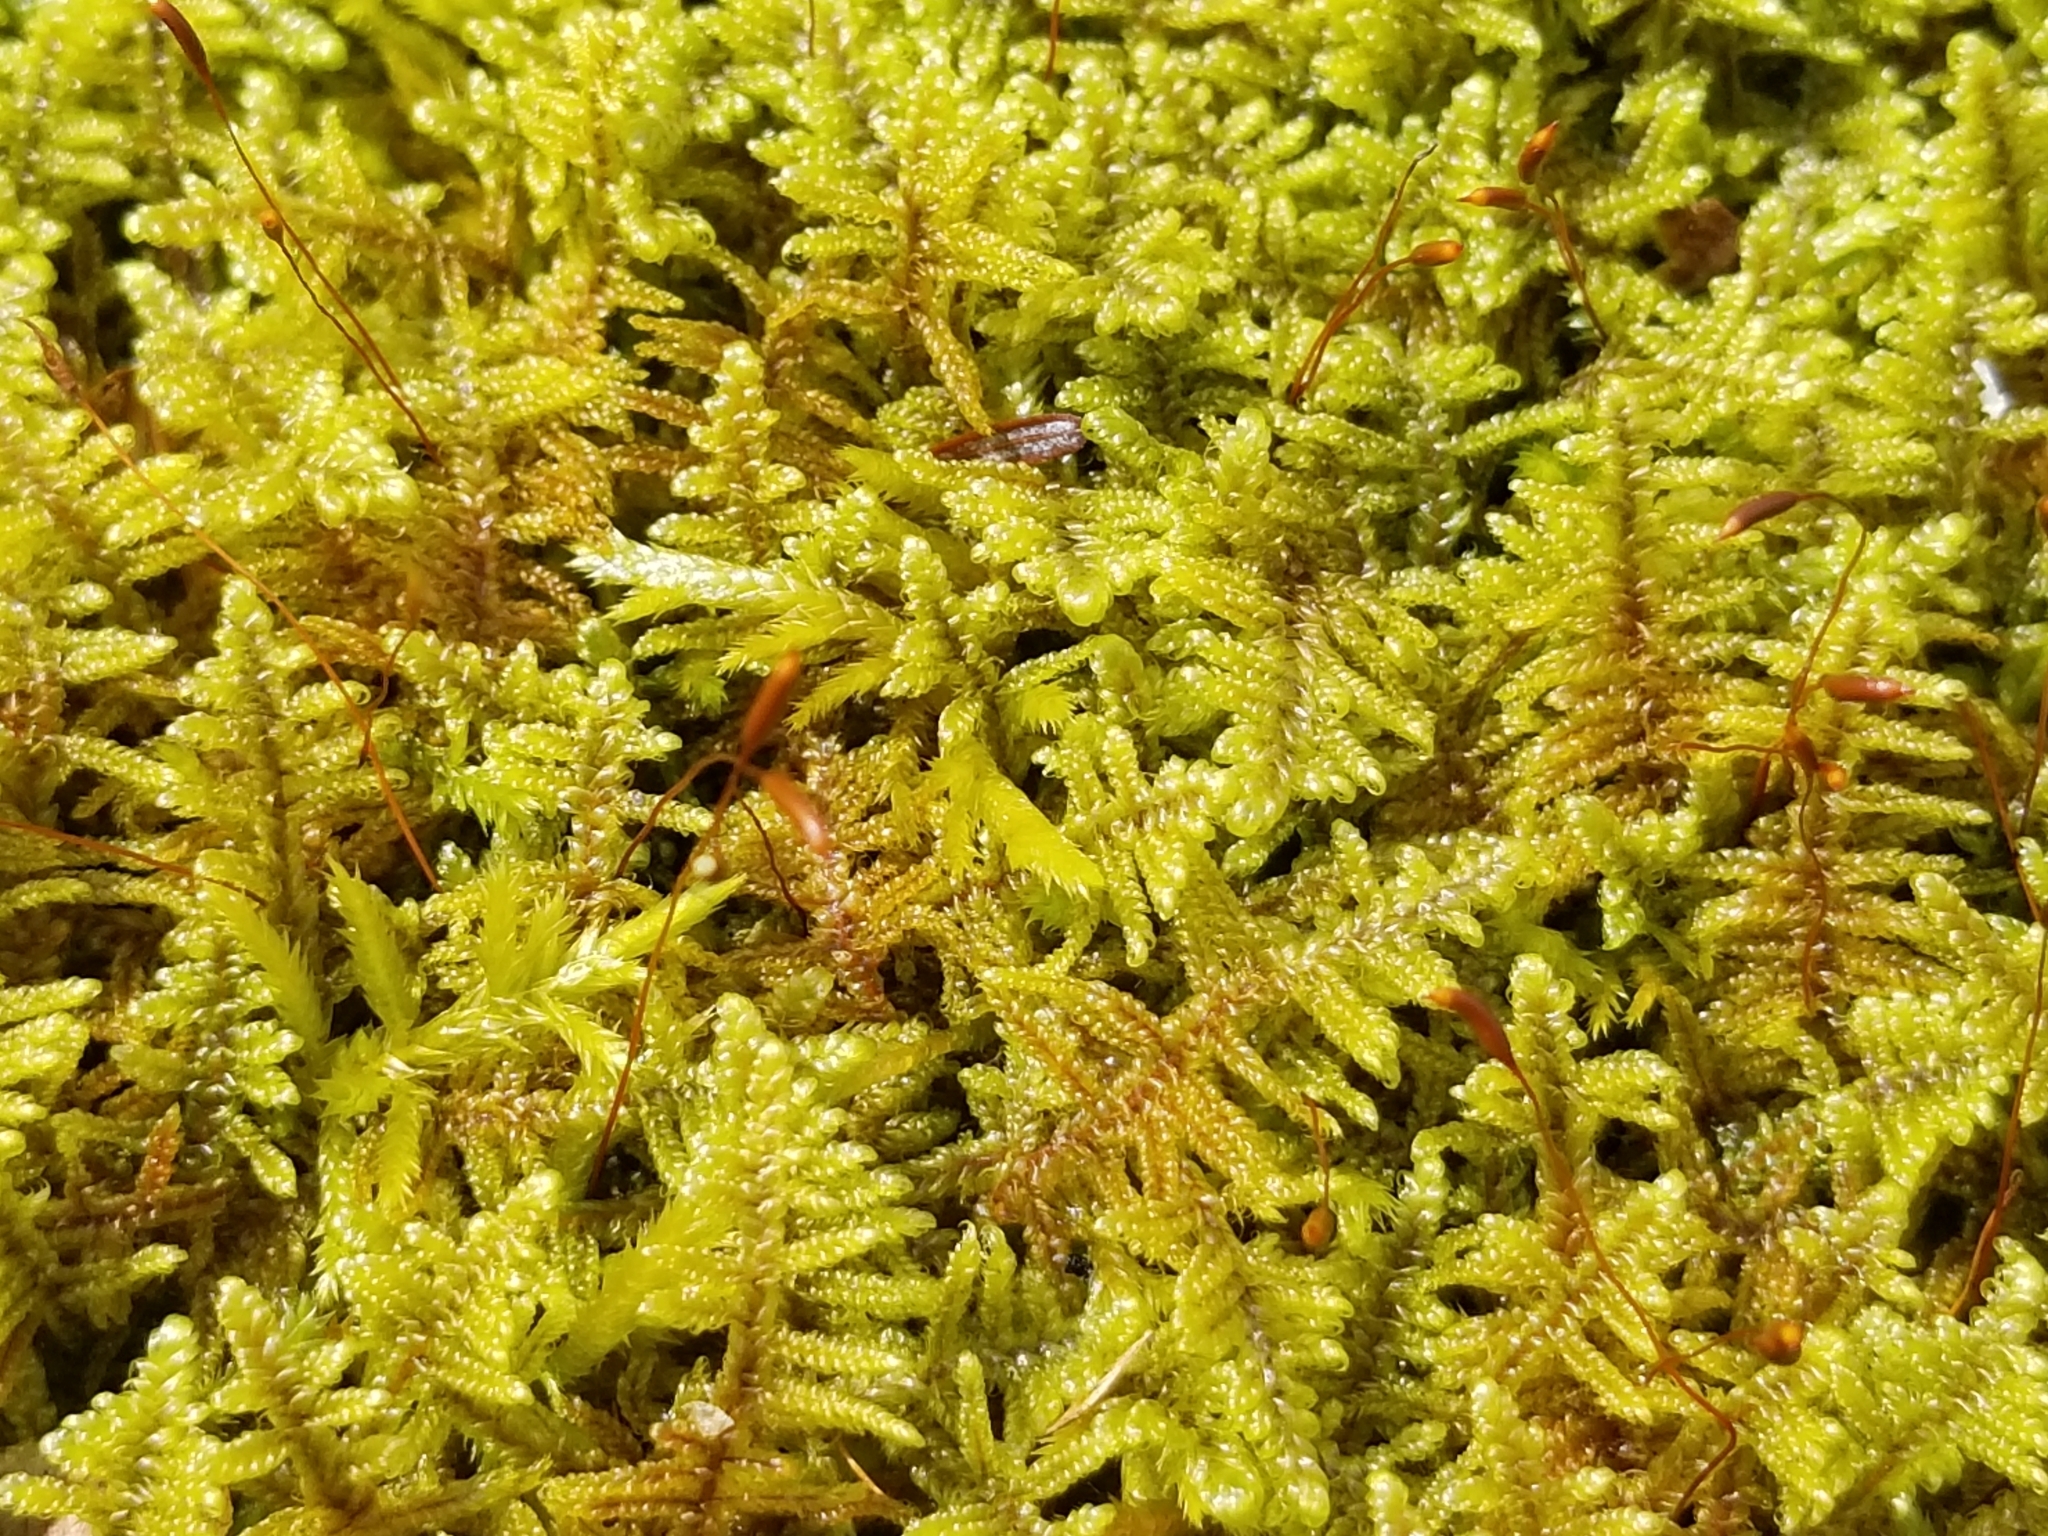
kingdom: Plantae
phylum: Bryophyta
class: Bryopsida
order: Hypnales
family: Callicladiaceae
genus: Callicladium
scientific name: Callicladium imponens
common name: Brocade moss
